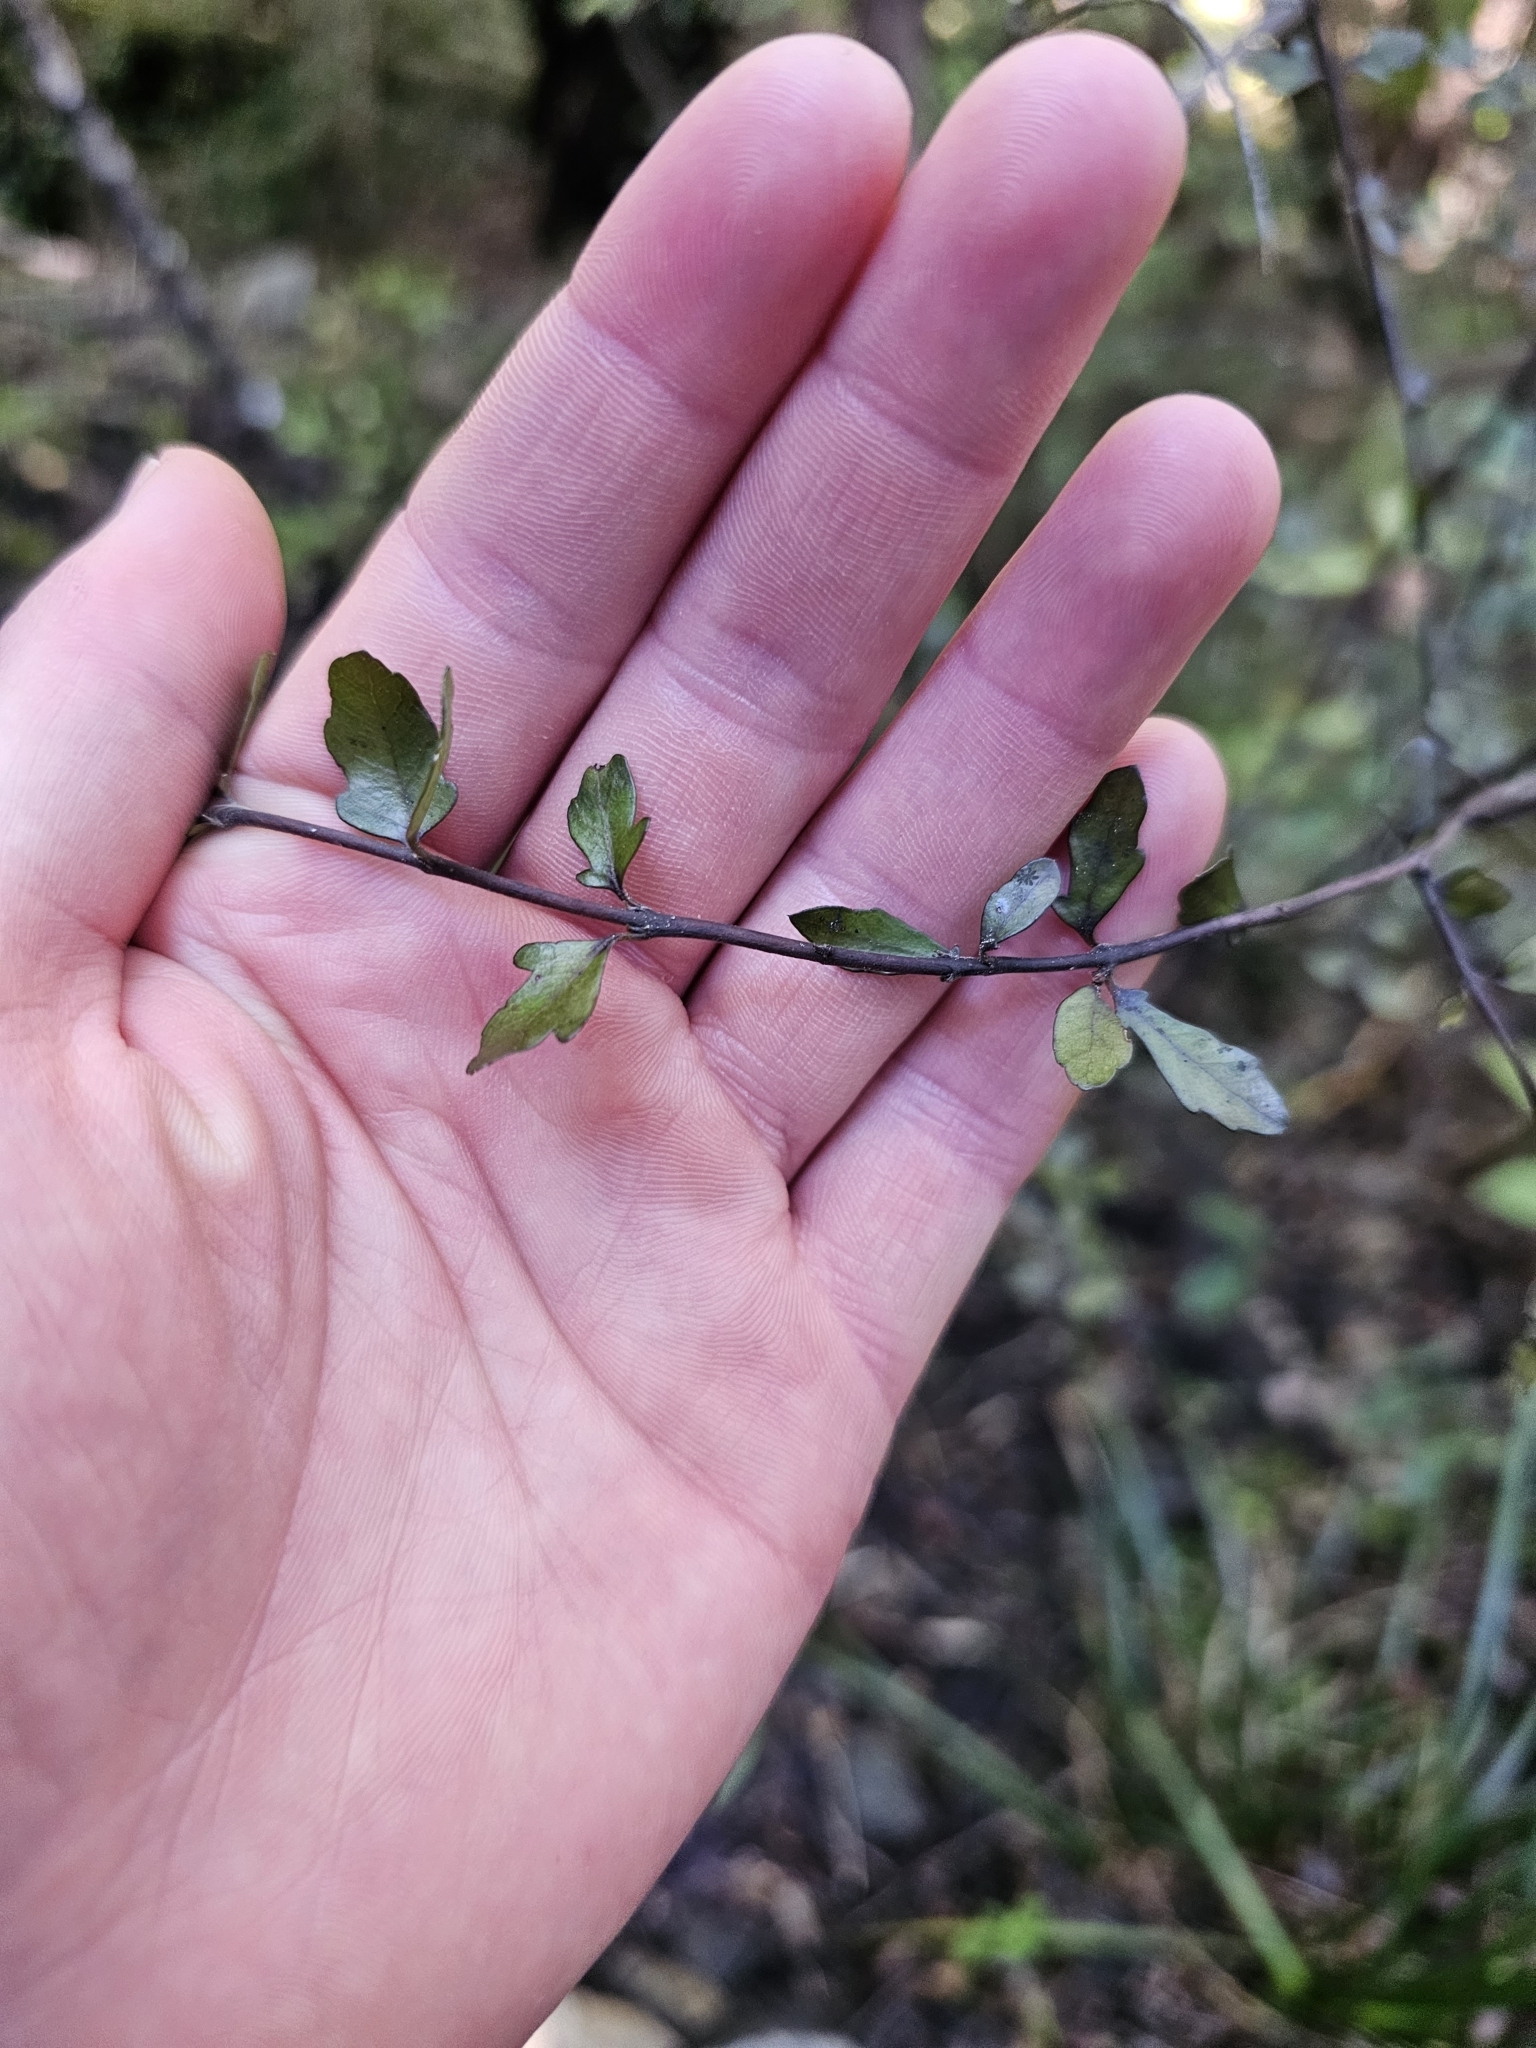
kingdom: Plantae
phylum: Tracheophyta
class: Magnoliopsida
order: Oxalidales
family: Elaeocarpaceae
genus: Aristotelia
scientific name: Aristotelia
